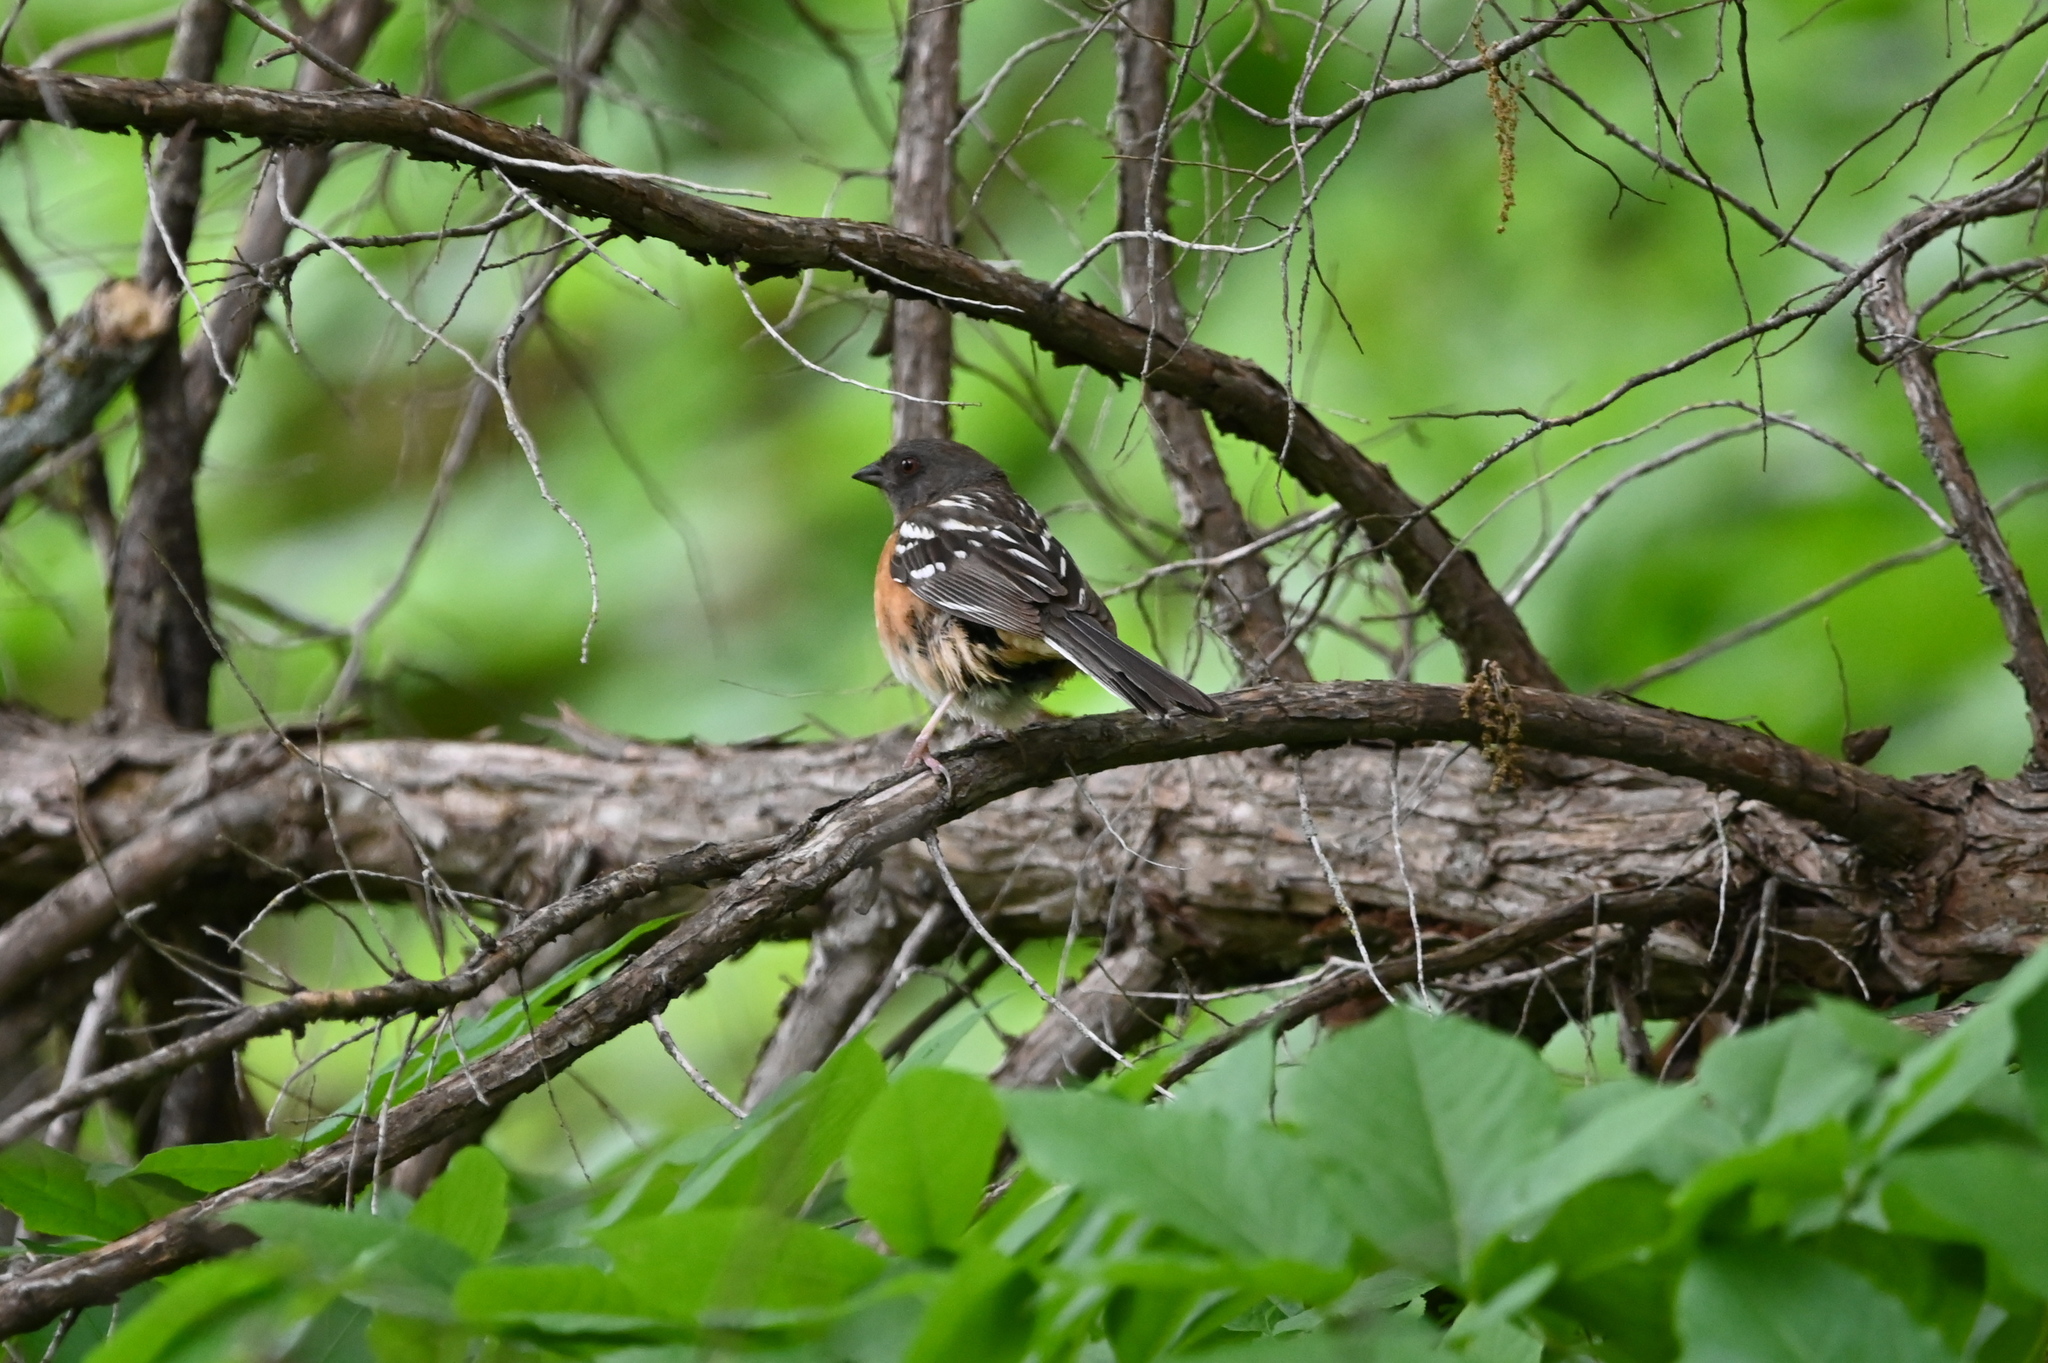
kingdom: Animalia
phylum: Chordata
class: Aves
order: Passeriformes
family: Passerellidae
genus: Pipilo
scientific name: Pipilo maculatus
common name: Spotted towhee
